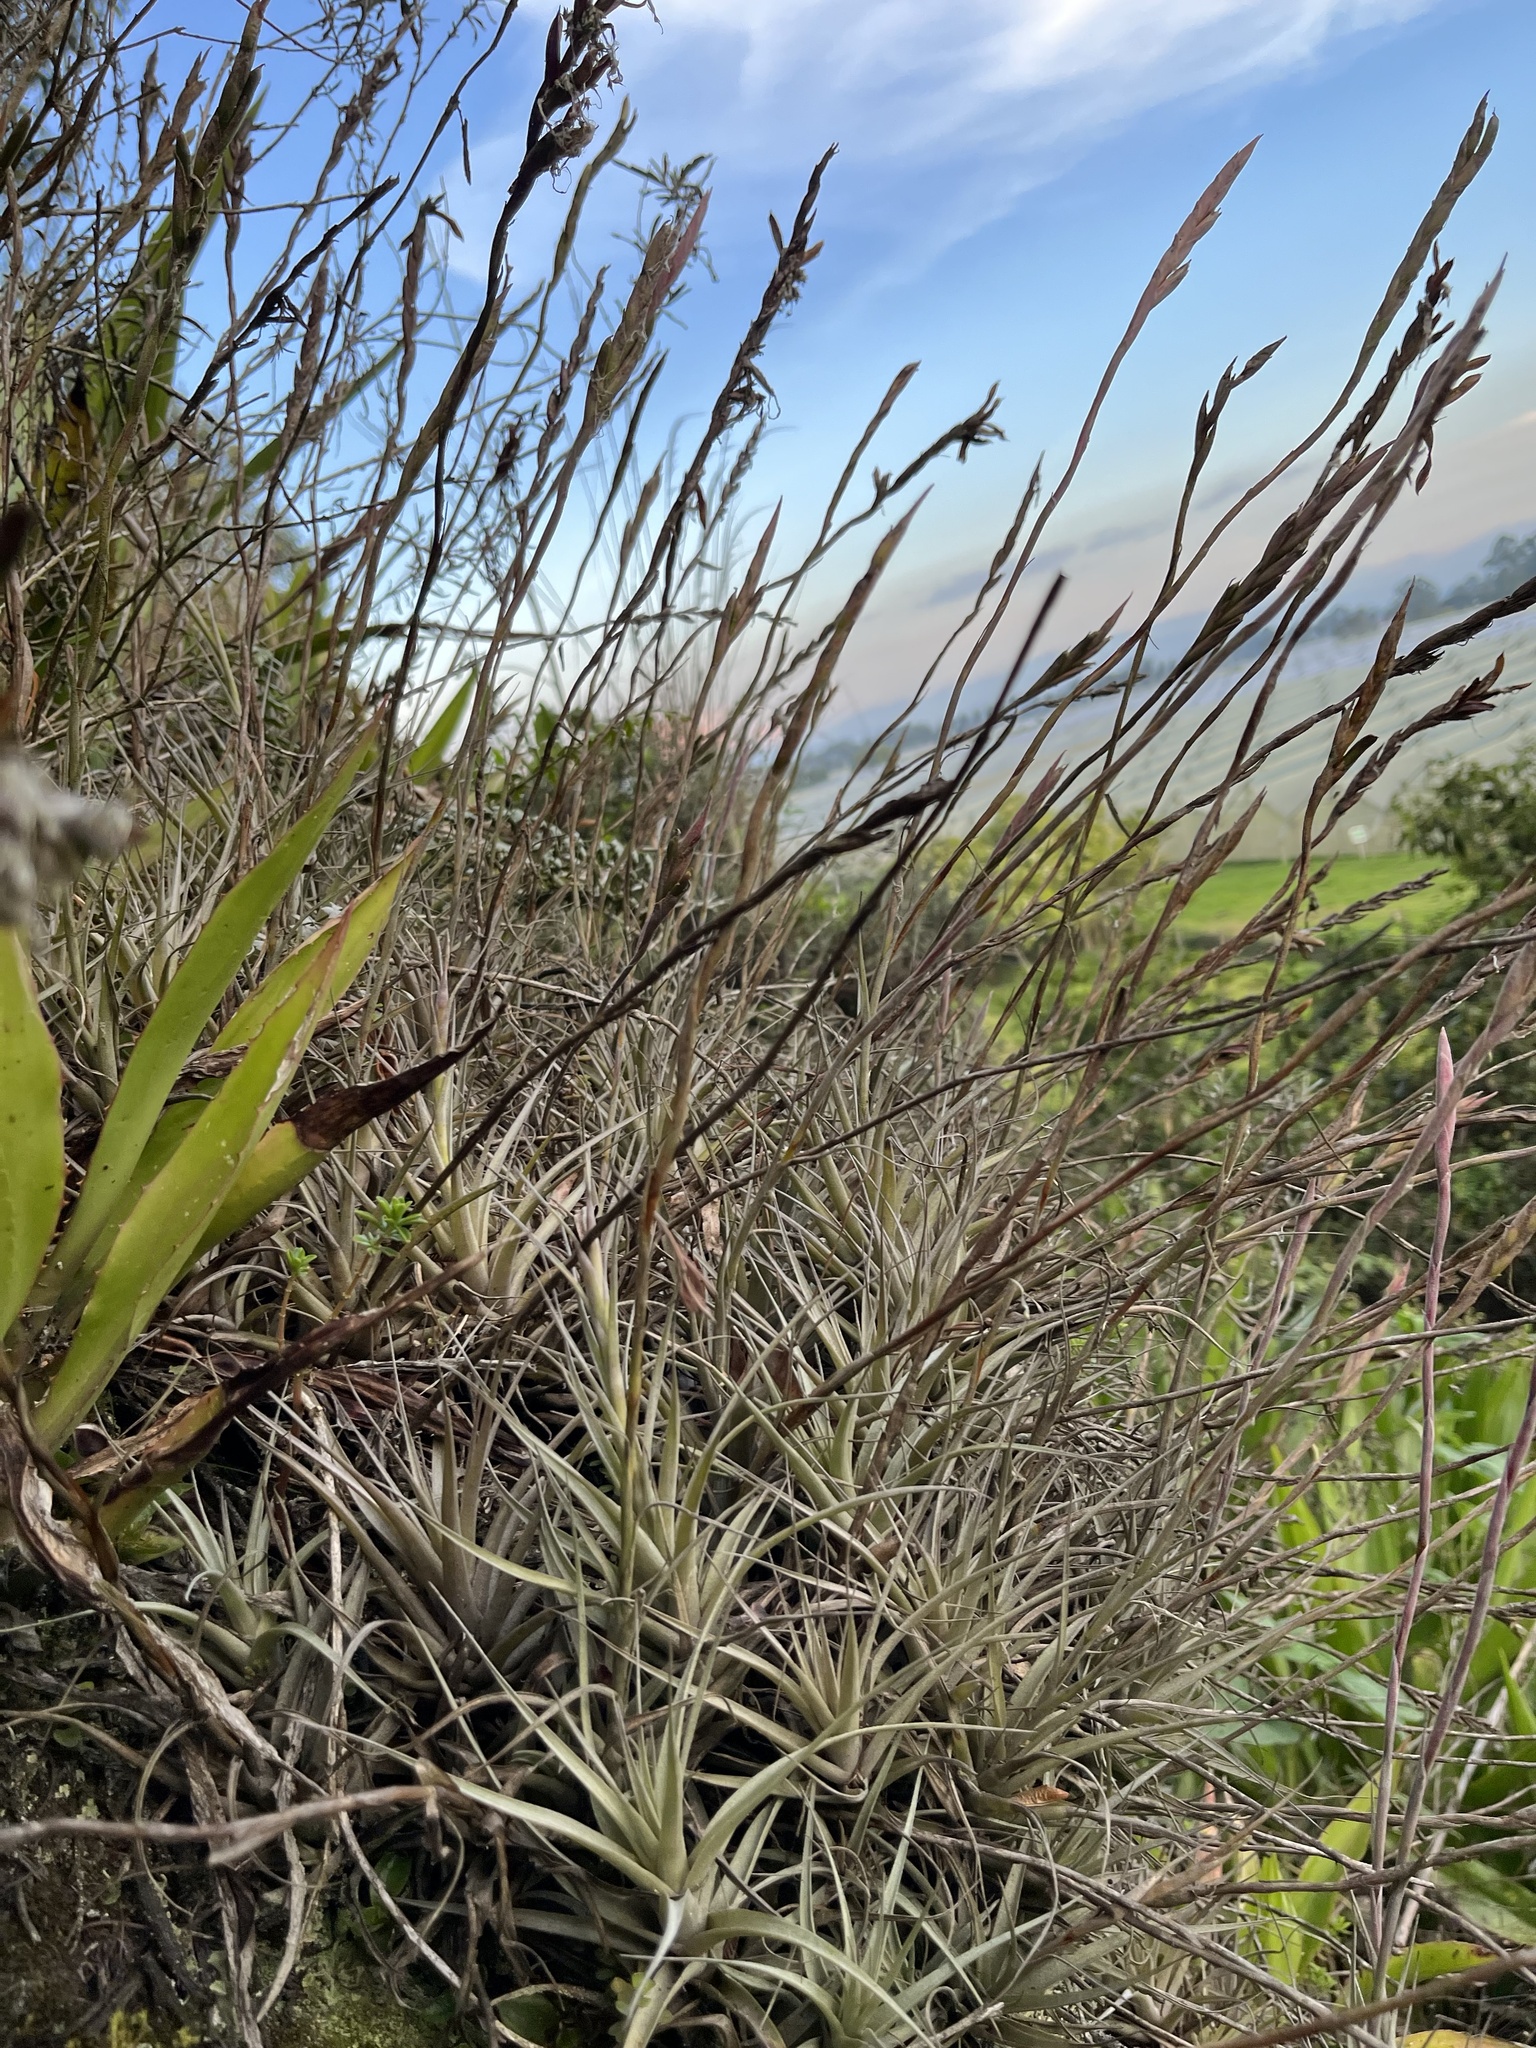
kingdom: Plantae
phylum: Tracheophyta
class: Liliopsida
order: Poales
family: Bromeliaceae
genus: Tillandsia
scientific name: Tillandsia incarnata
